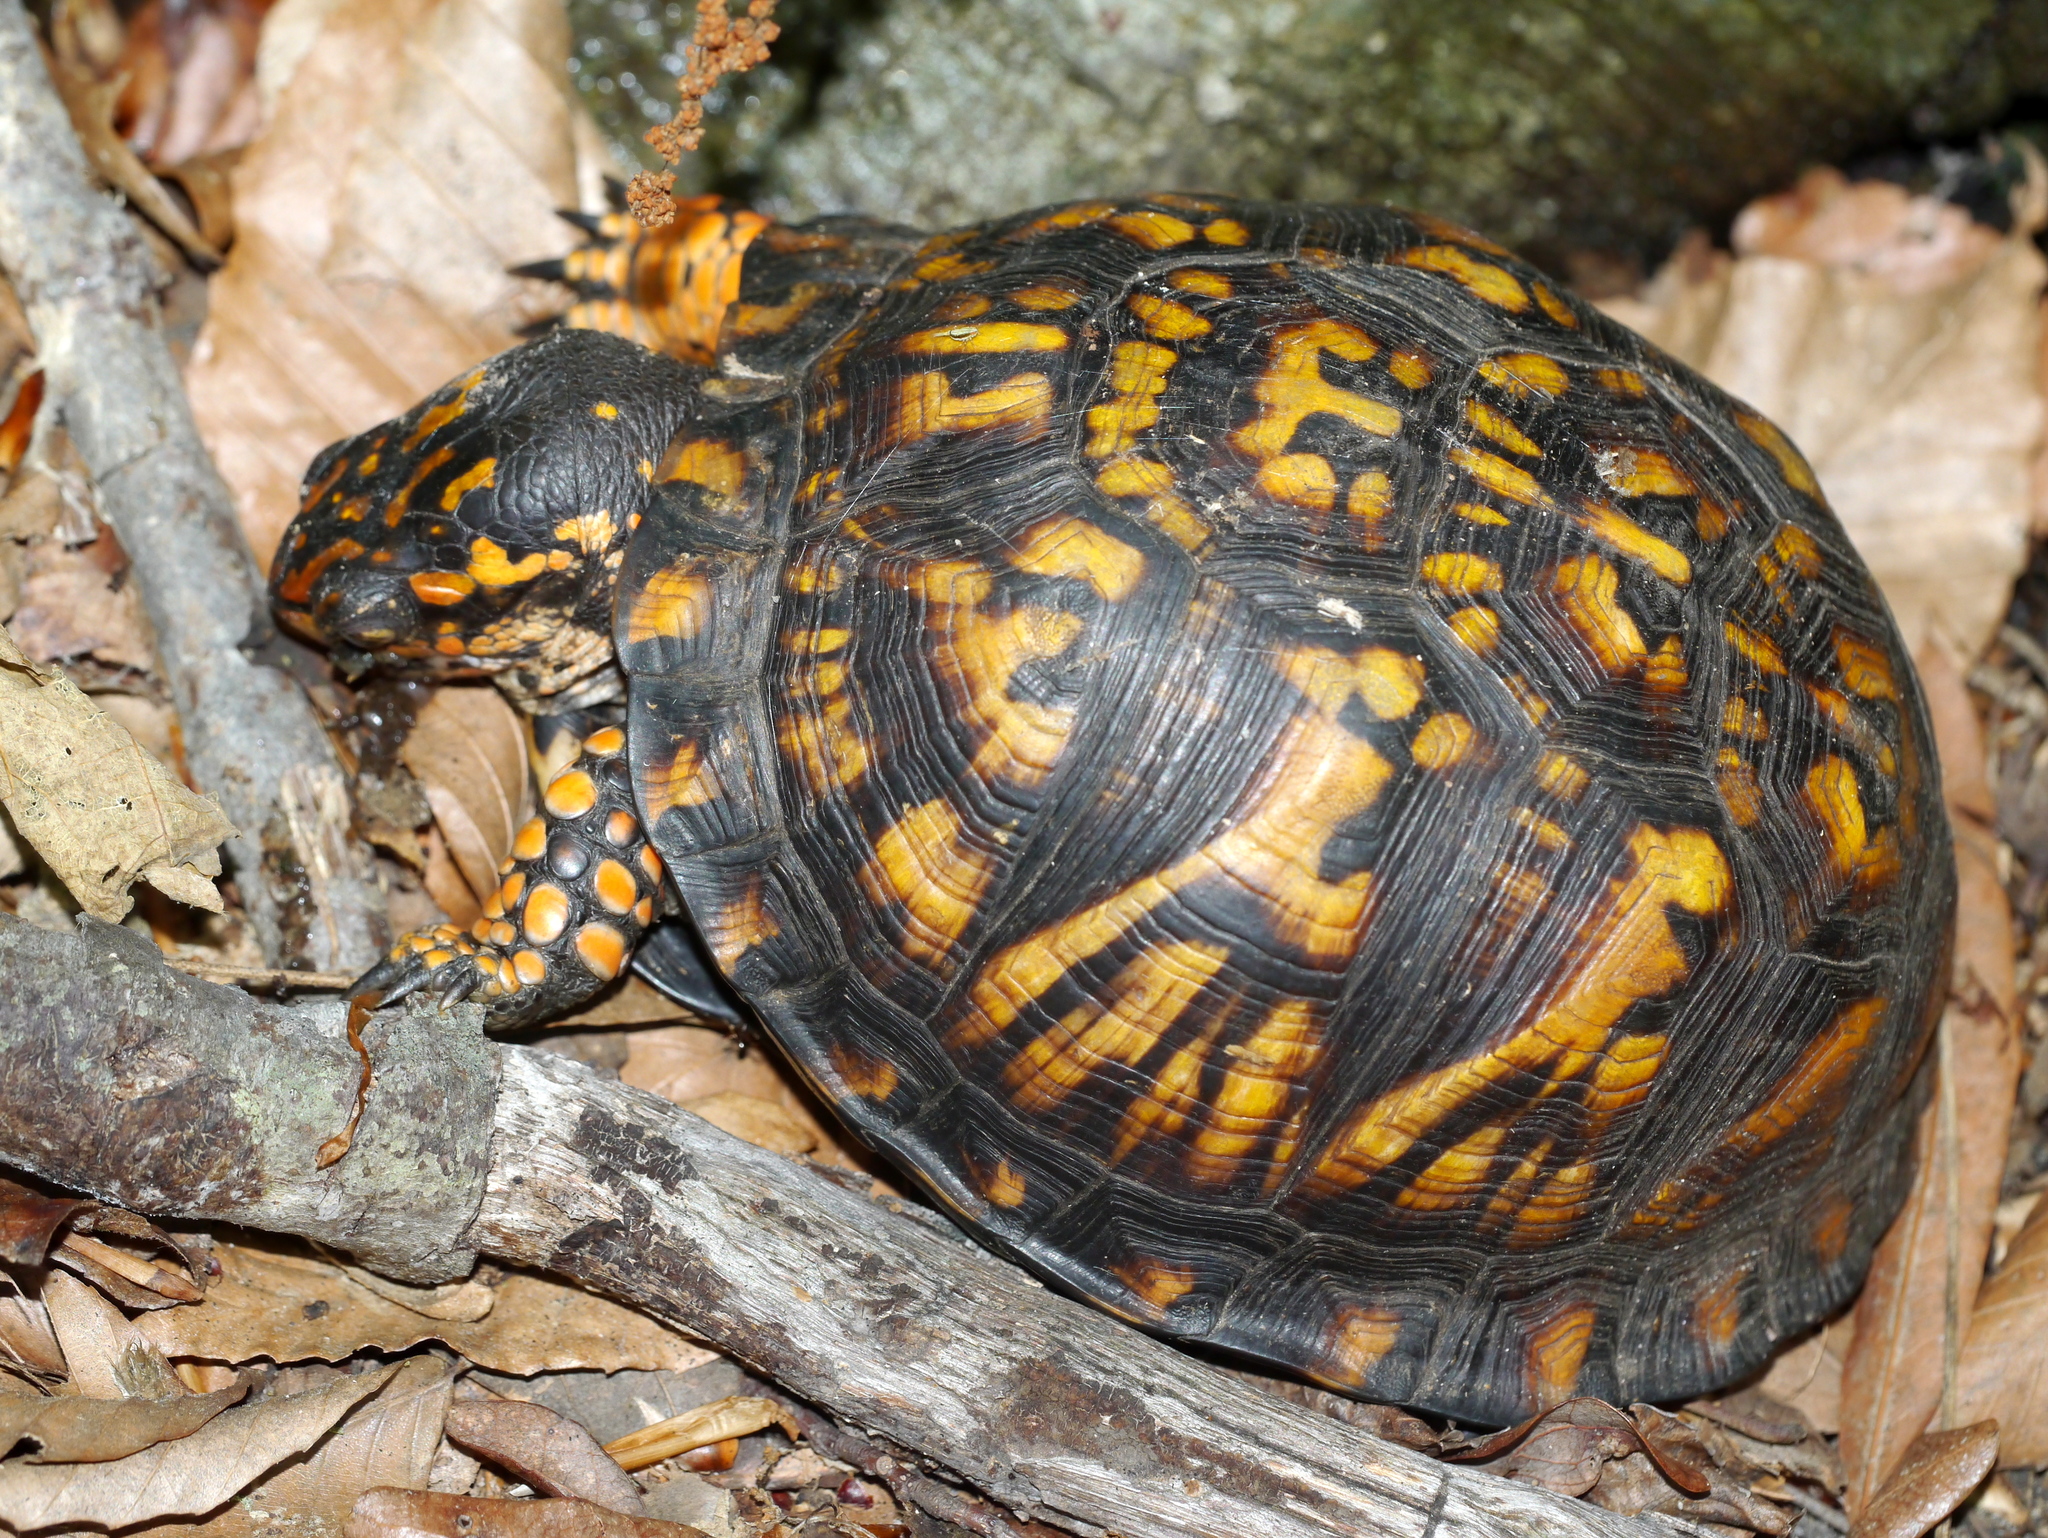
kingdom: Animalia
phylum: Chordata
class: Testudines
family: Emydidae
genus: Terrapene
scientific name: Terrapene carolina
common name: Common box turtle
